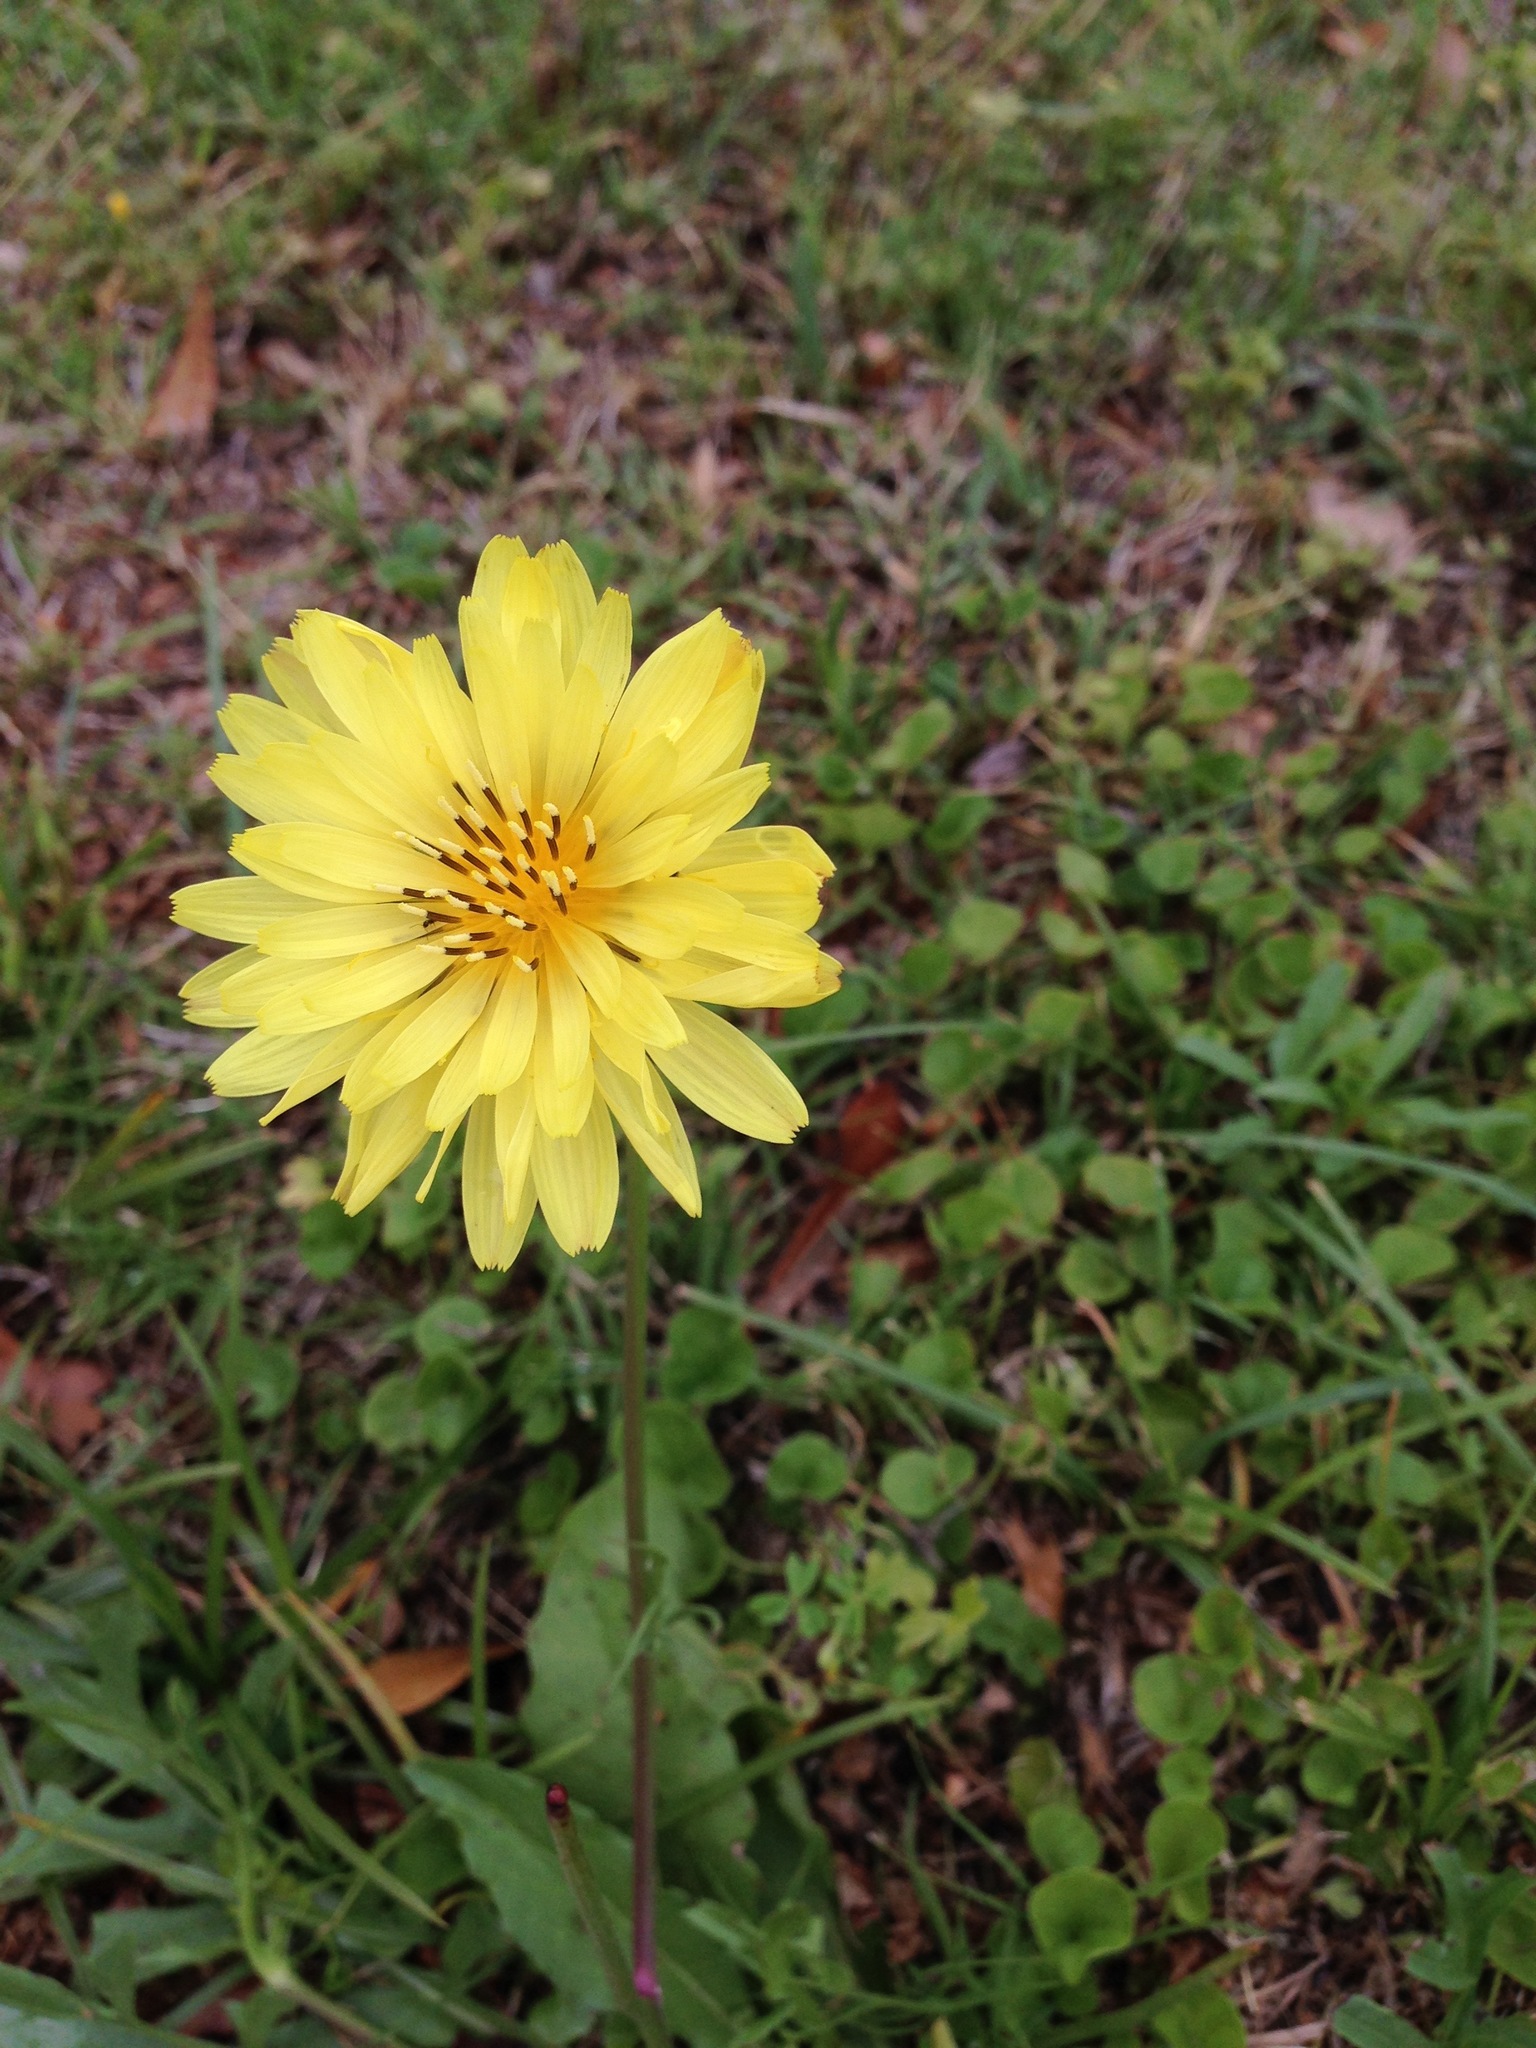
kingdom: Plantae
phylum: Tracheophyta
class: Magnoliopsida
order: Asterales
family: Asteraceae
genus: Pyrrhopappus
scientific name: Pyrrhopappus pauciflorus
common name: Texas false dandelion
